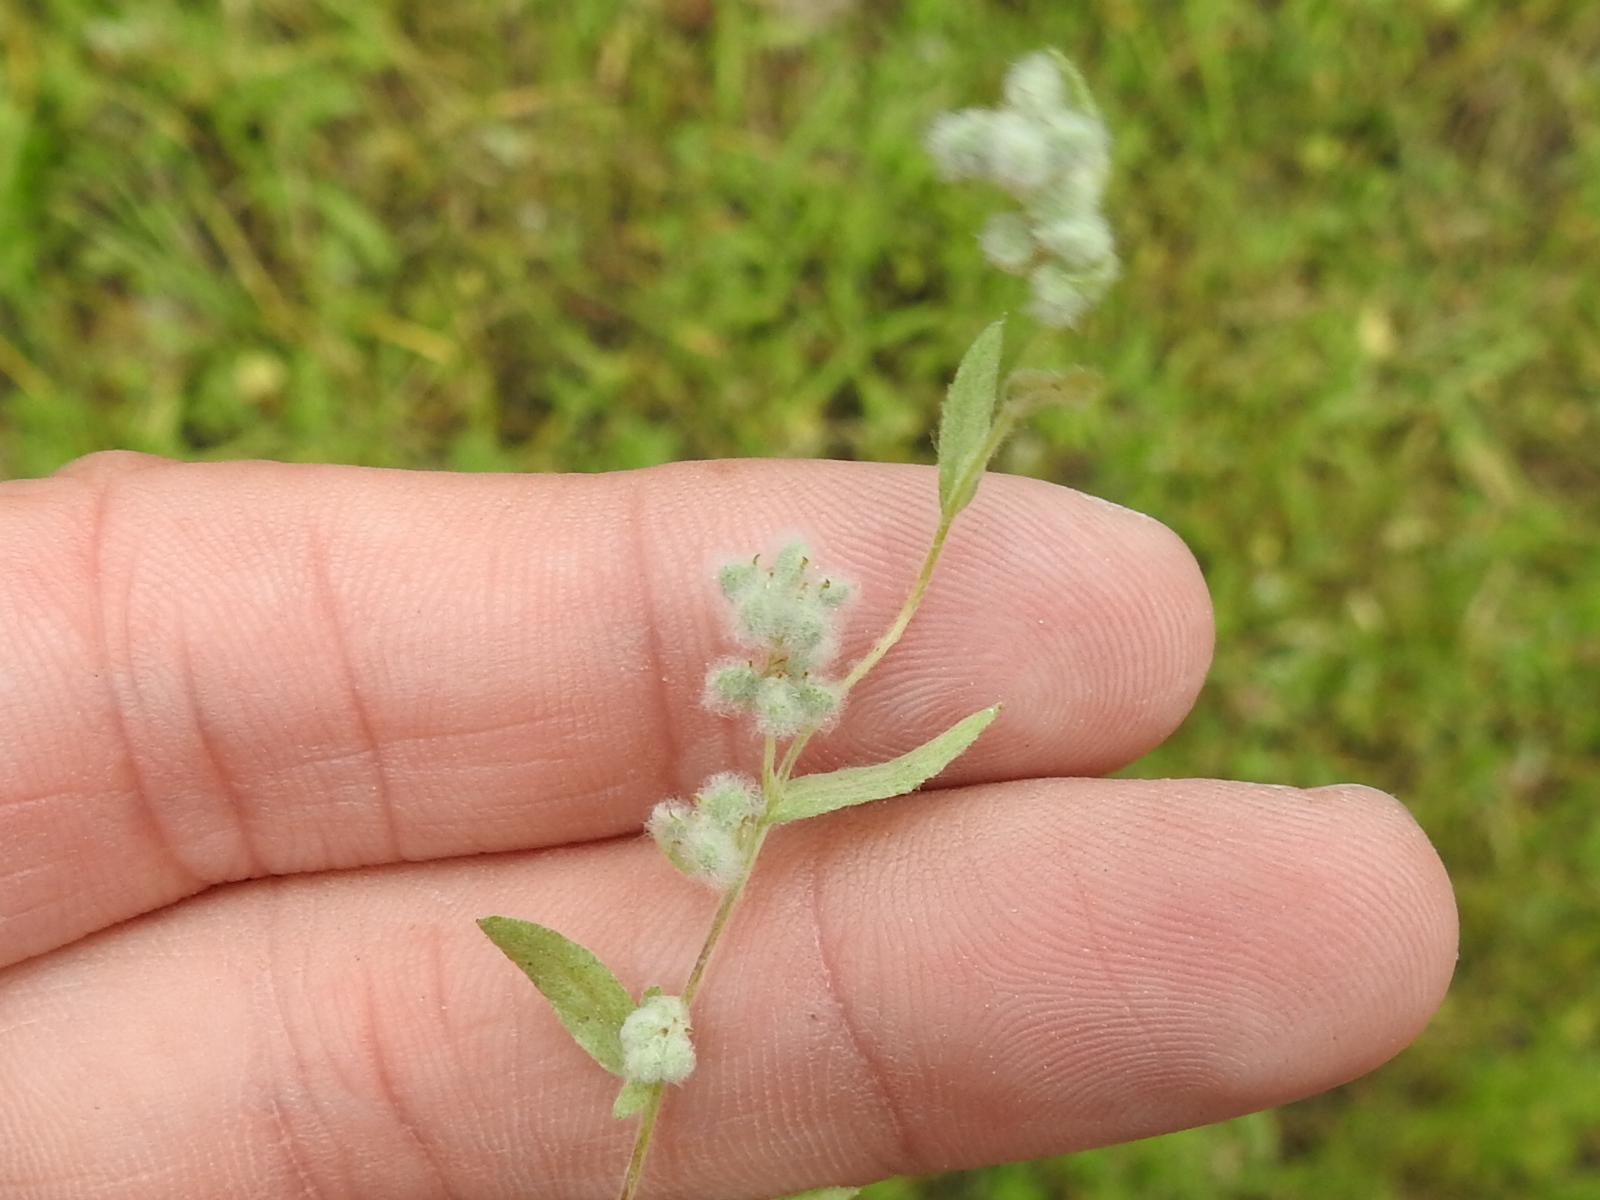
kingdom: Plantae
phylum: Tracheophyta
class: Magnoliopsida
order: Asterales
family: Asteraceae
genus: Bombycilaena
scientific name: Bombycilaena californica
